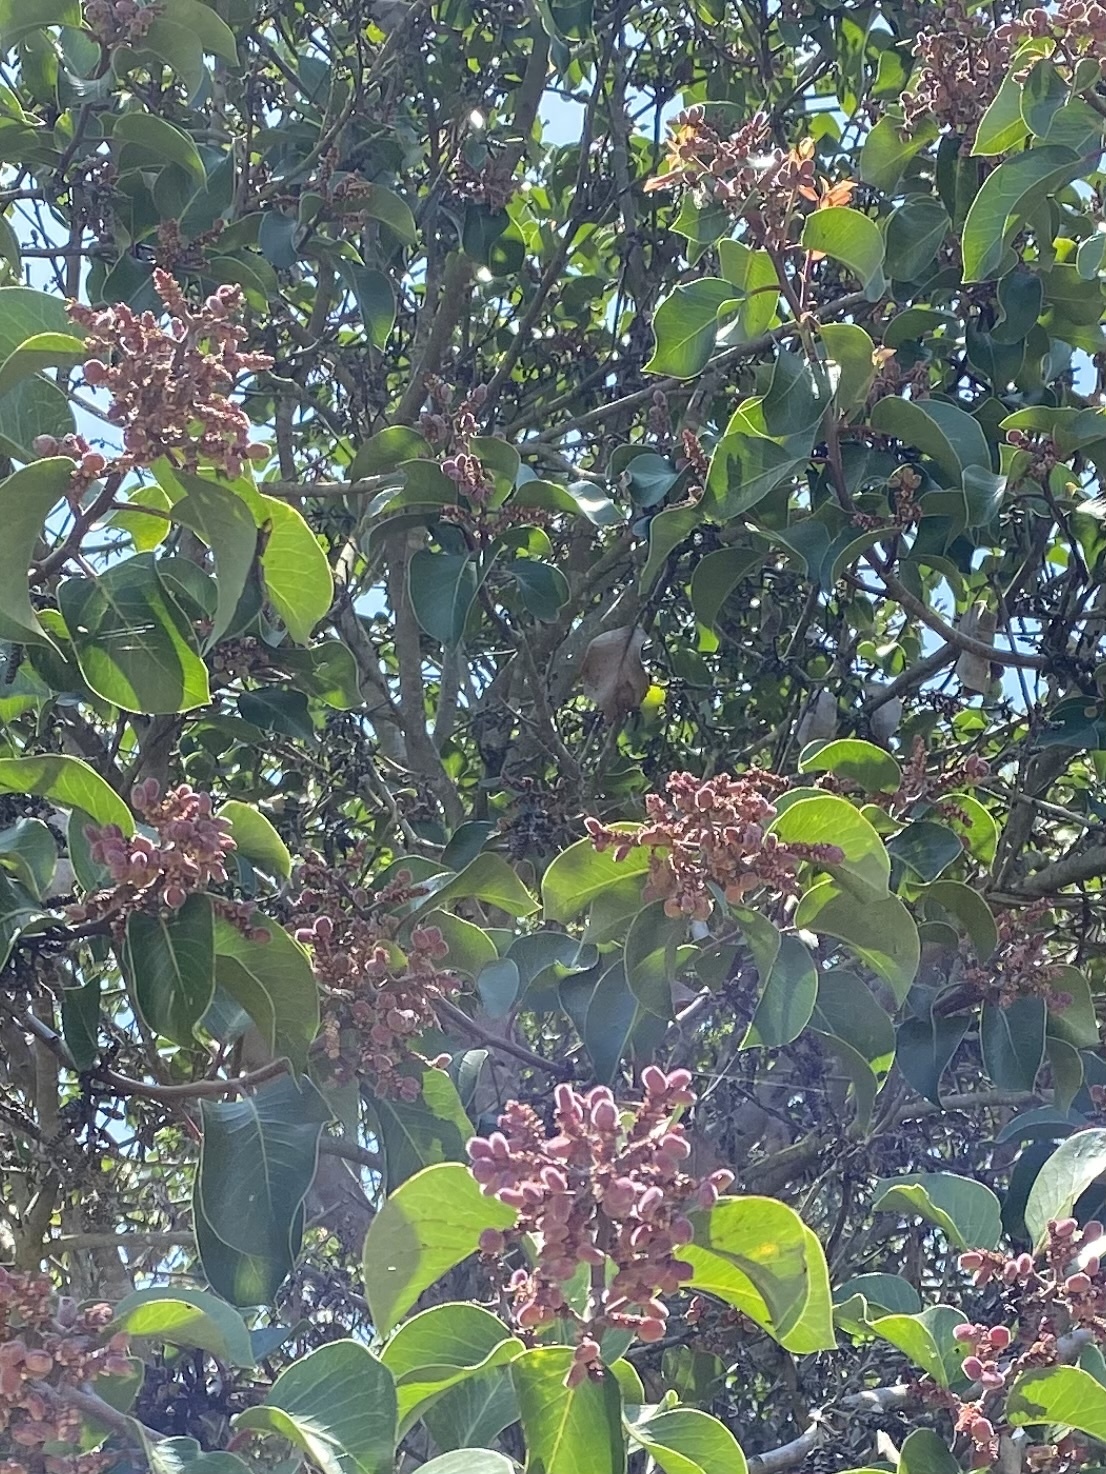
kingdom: Plantae
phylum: Tracheophyta
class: Magnoliopsida
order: Sapindales
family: Anacardiaceae
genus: Rhus
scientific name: Rhus ovata
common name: Sugar sumac
